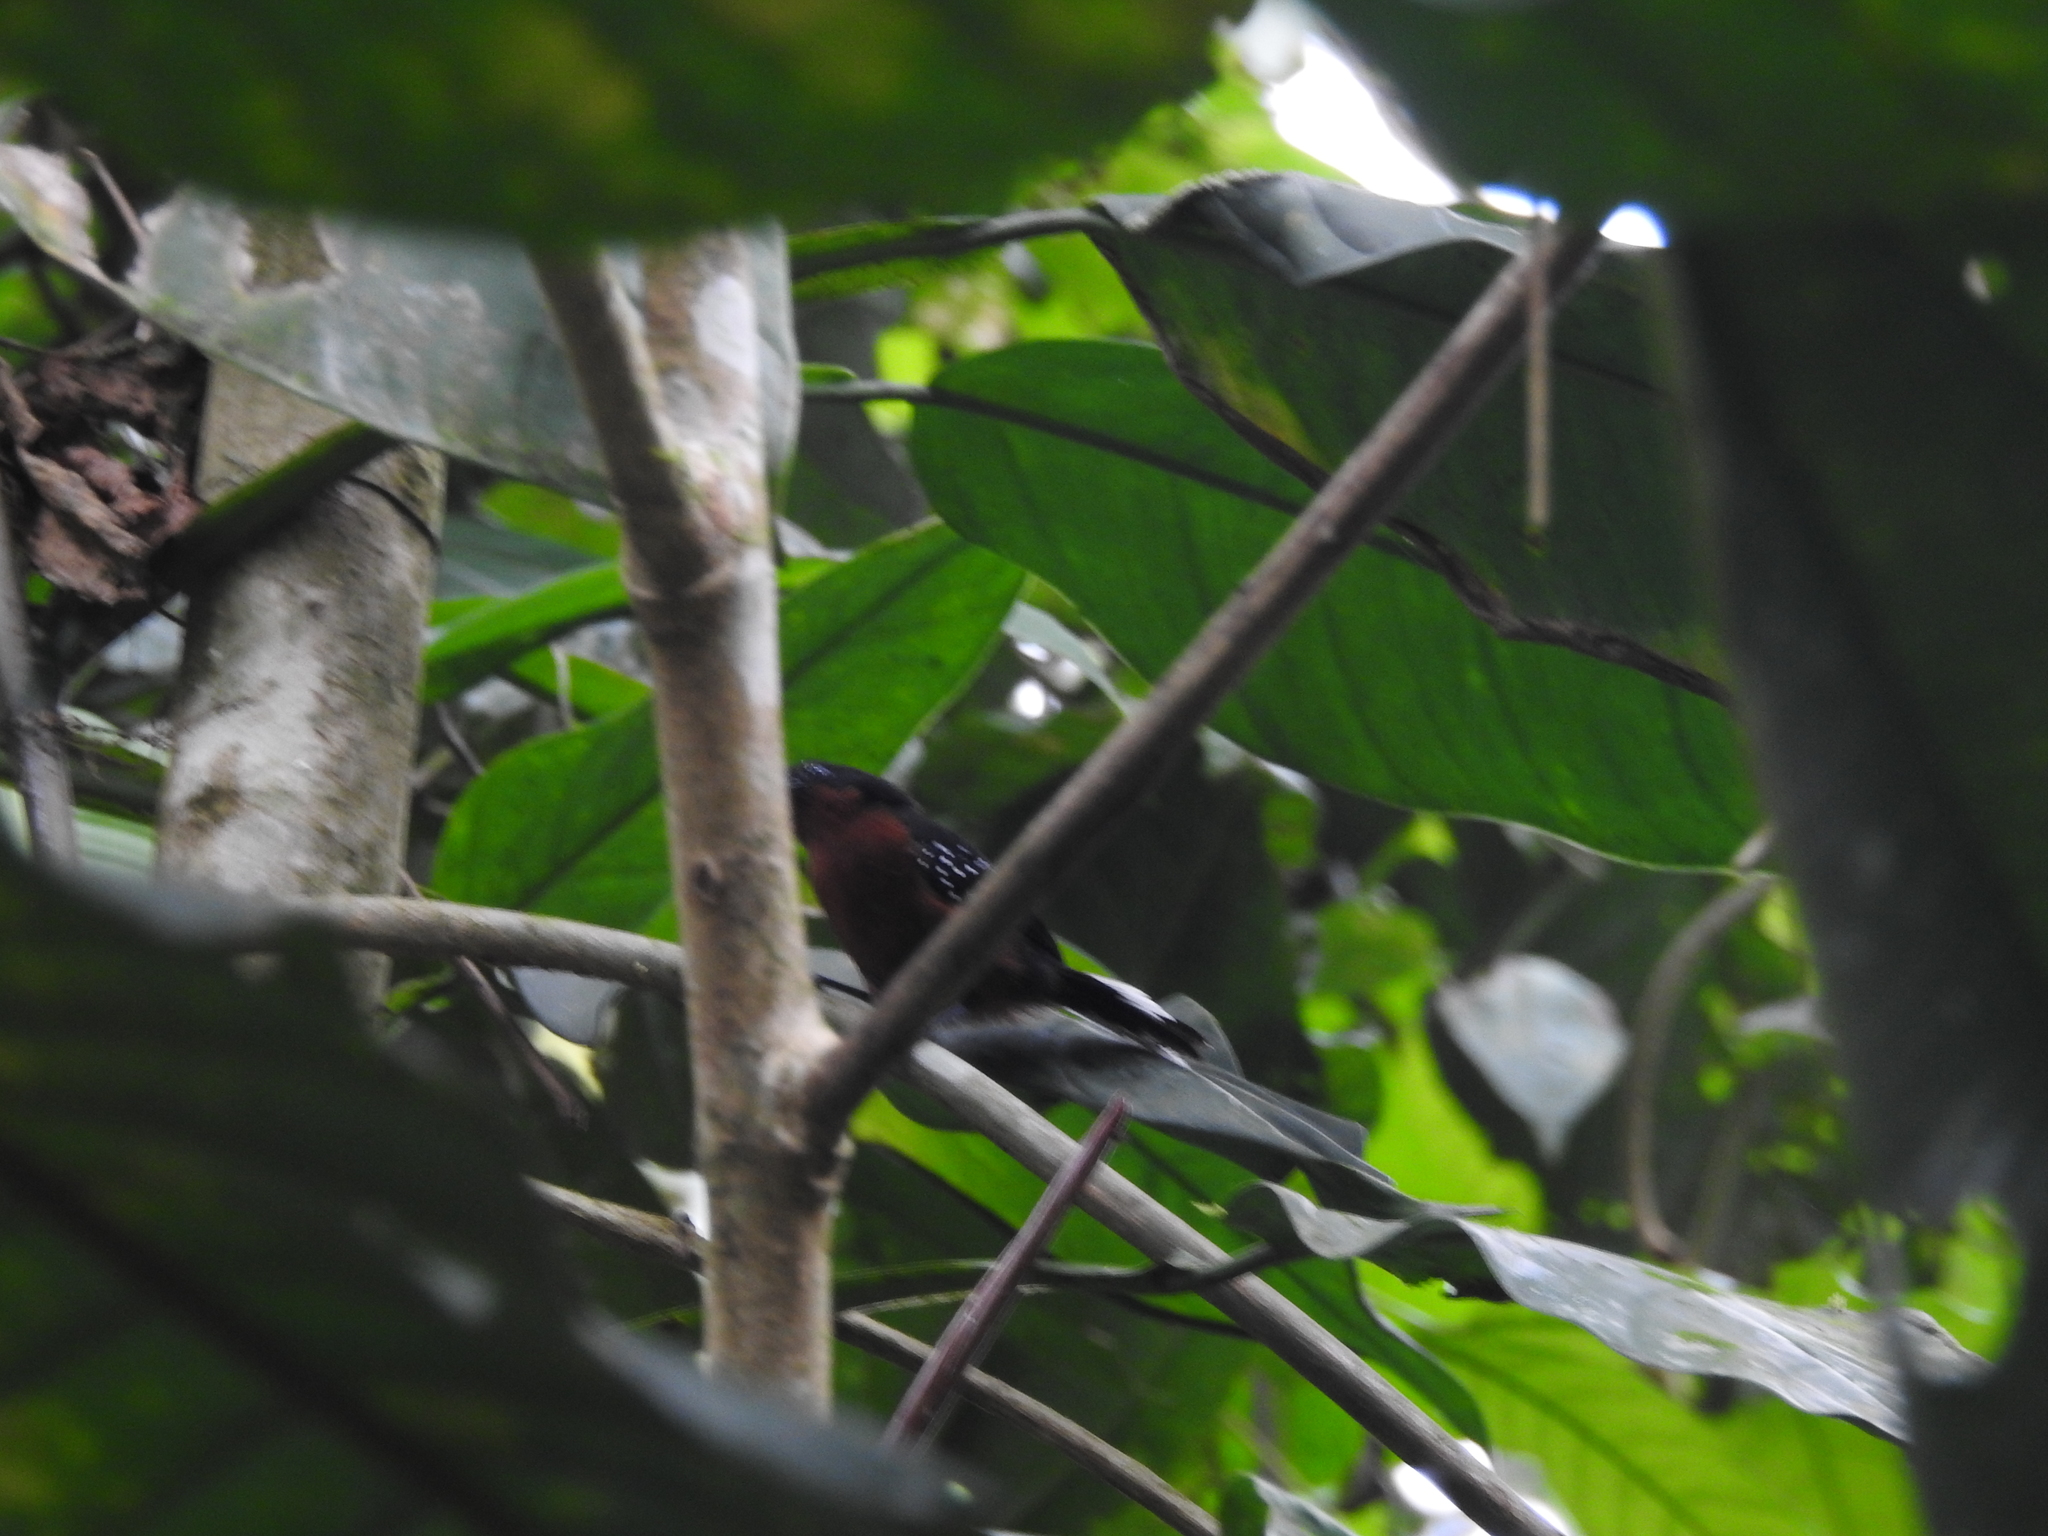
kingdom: Animalia
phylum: Chordata
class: Aves
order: Passeriformes
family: Thamnophilidae
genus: Microrhopias
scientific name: Microrhopias quixensis
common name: Dot-winged antwren
